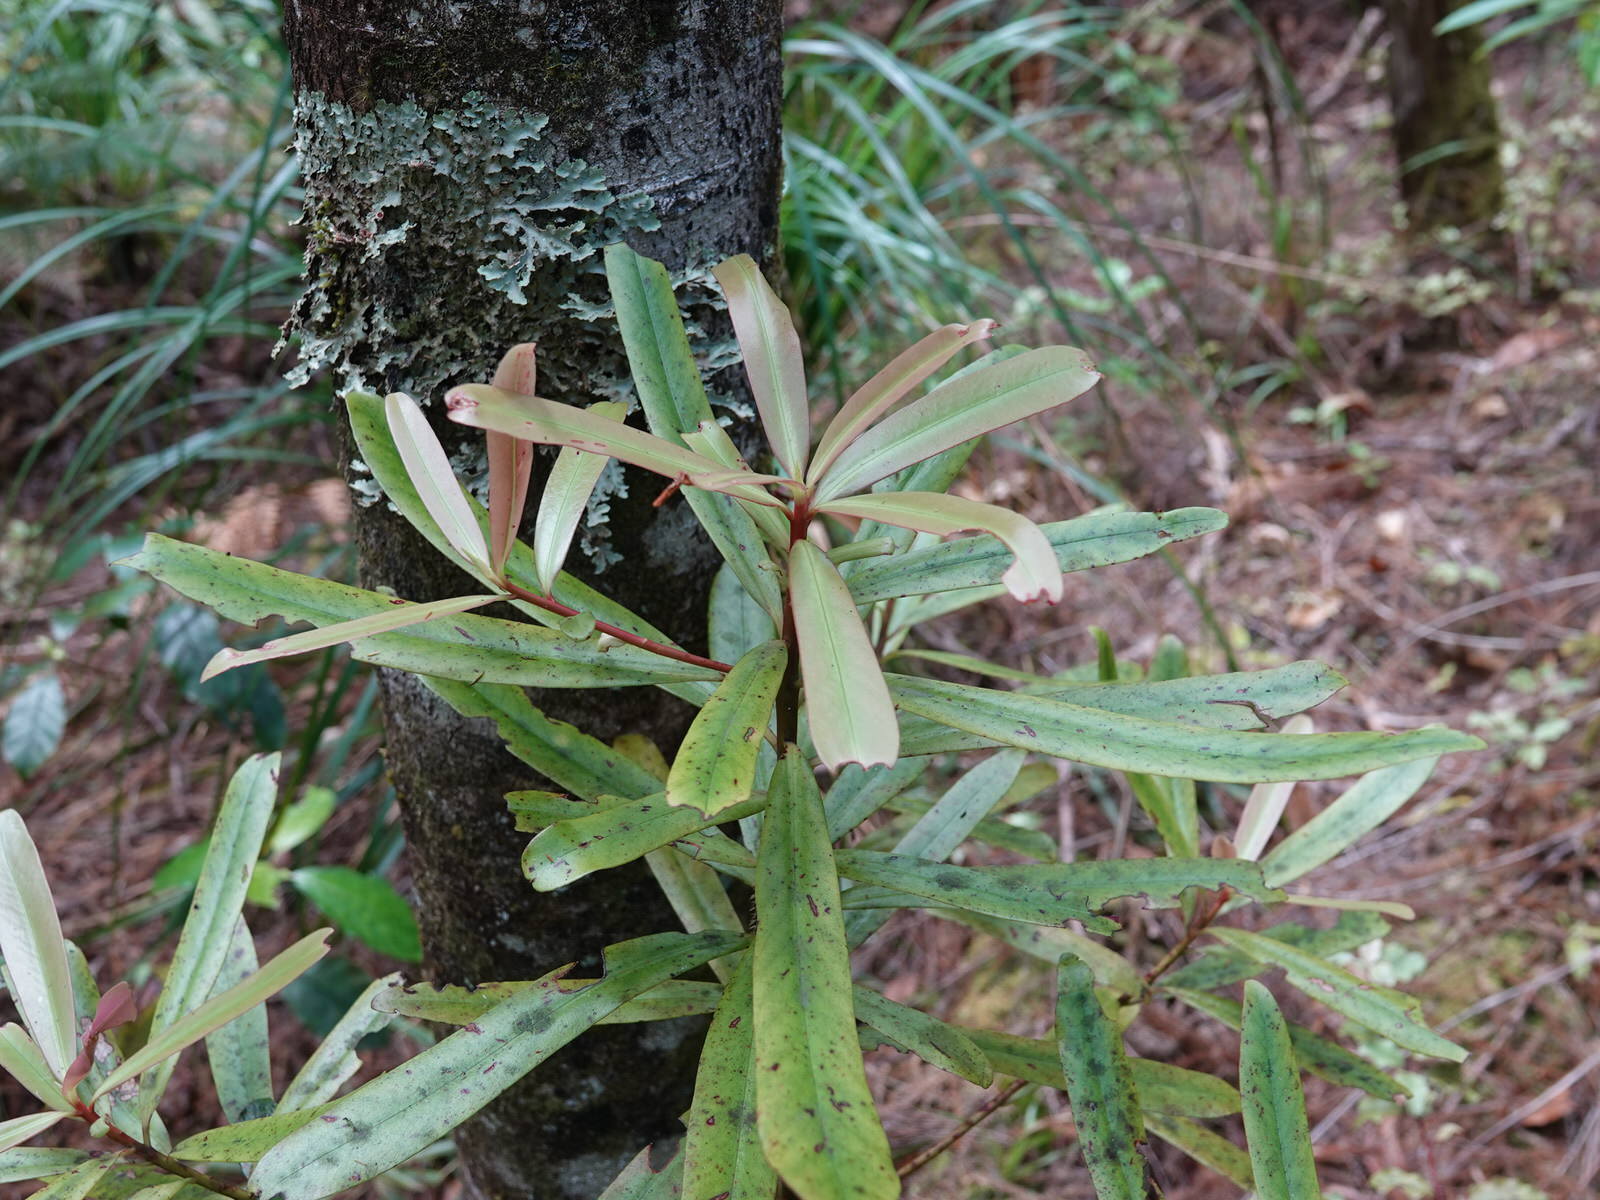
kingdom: Plantae
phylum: Tracheophyta
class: Magnoliopsida
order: Ericales
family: Primulaceae
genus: Myrsine
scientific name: Myrsine salicina
